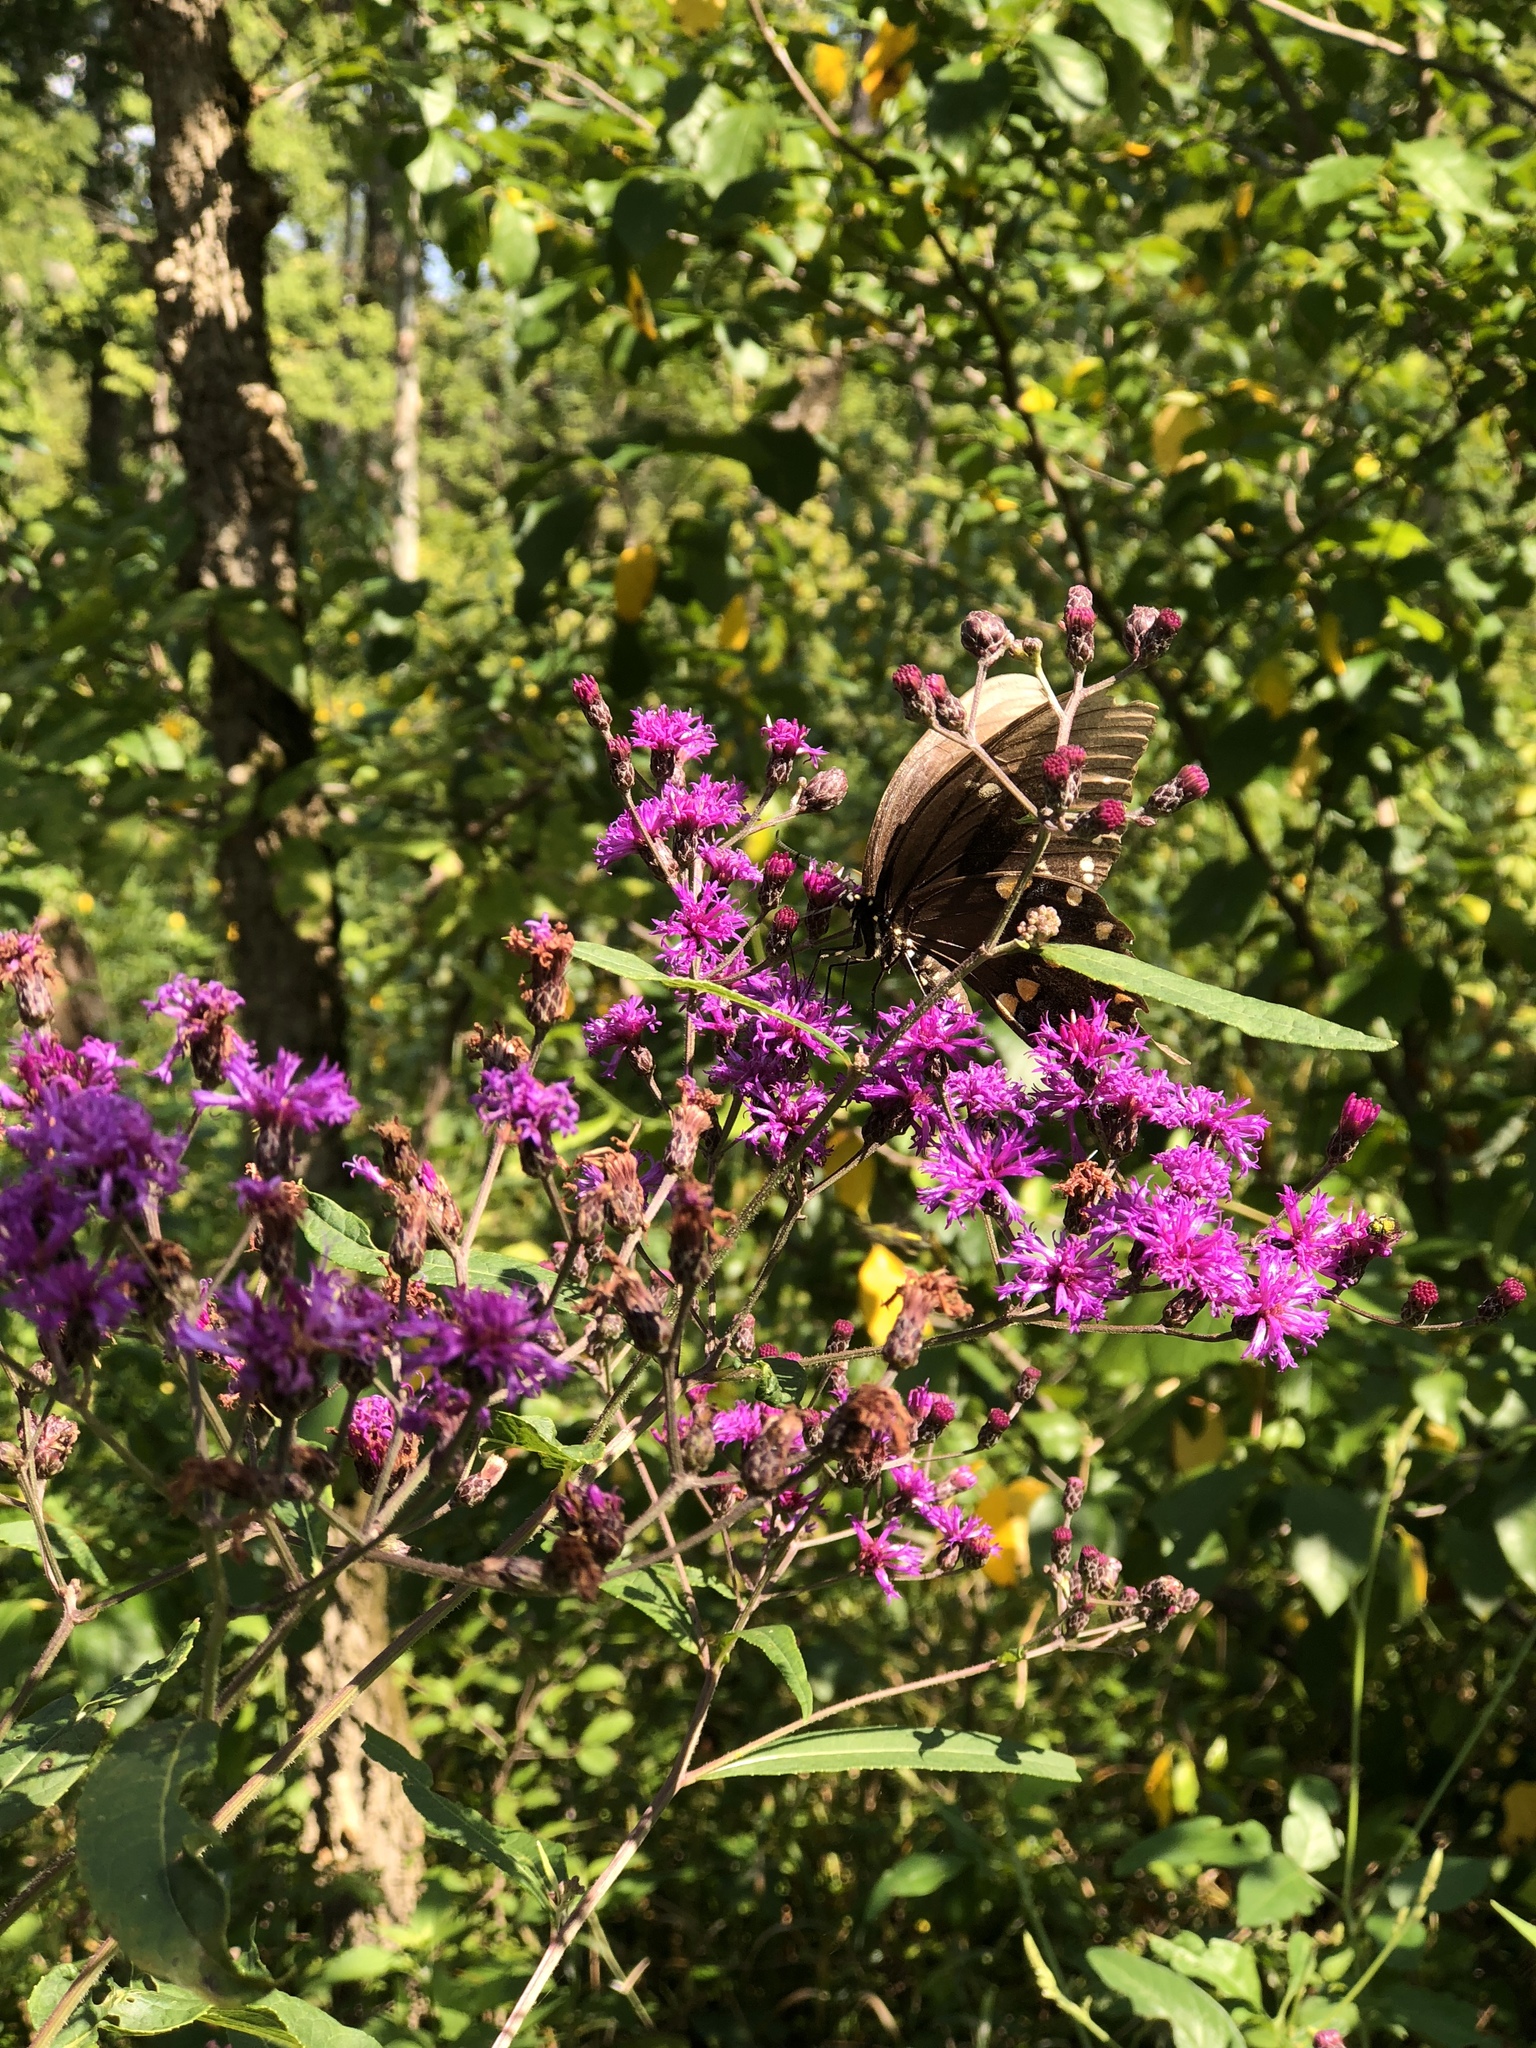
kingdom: Plantae
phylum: Tracheophyta
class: Magnoliopsida
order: Asterales
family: Asteraceae
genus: Vernonia
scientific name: Vernonia gigantea
